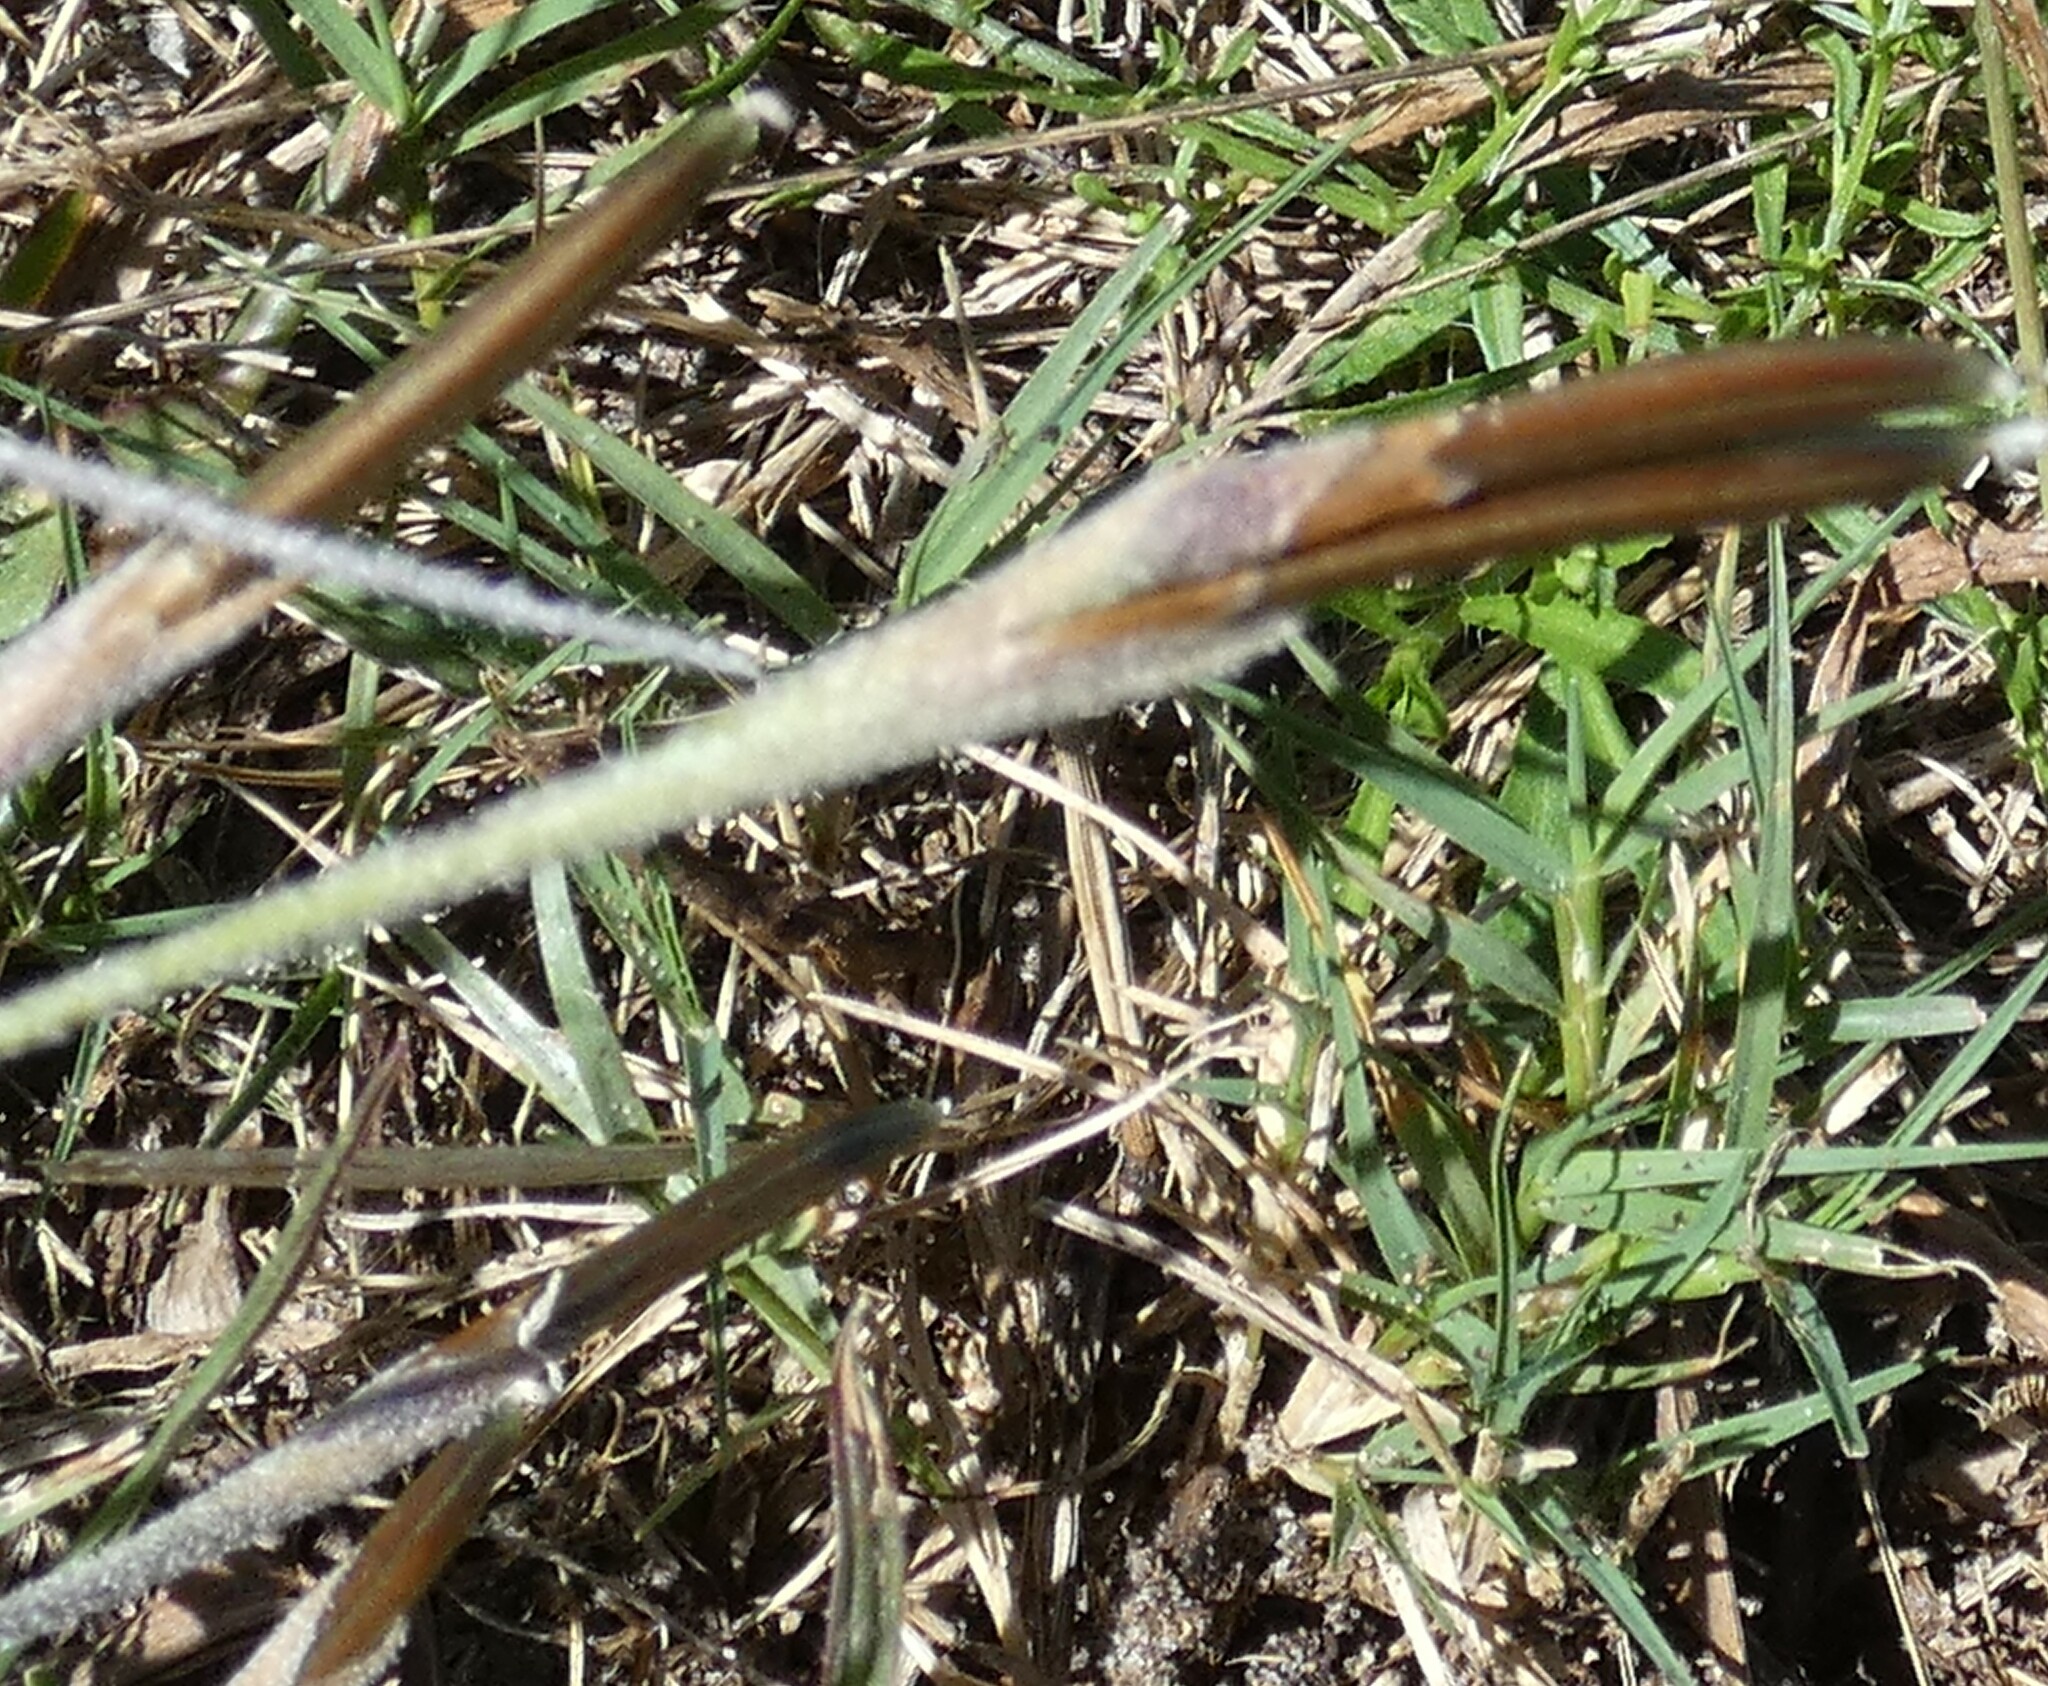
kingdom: Plantae
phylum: Tracheophyta
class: Liliopsida
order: Poales
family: Bromeliaceae
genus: Tillandsia
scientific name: Tillandsia recurvata
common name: Small ballmoss
